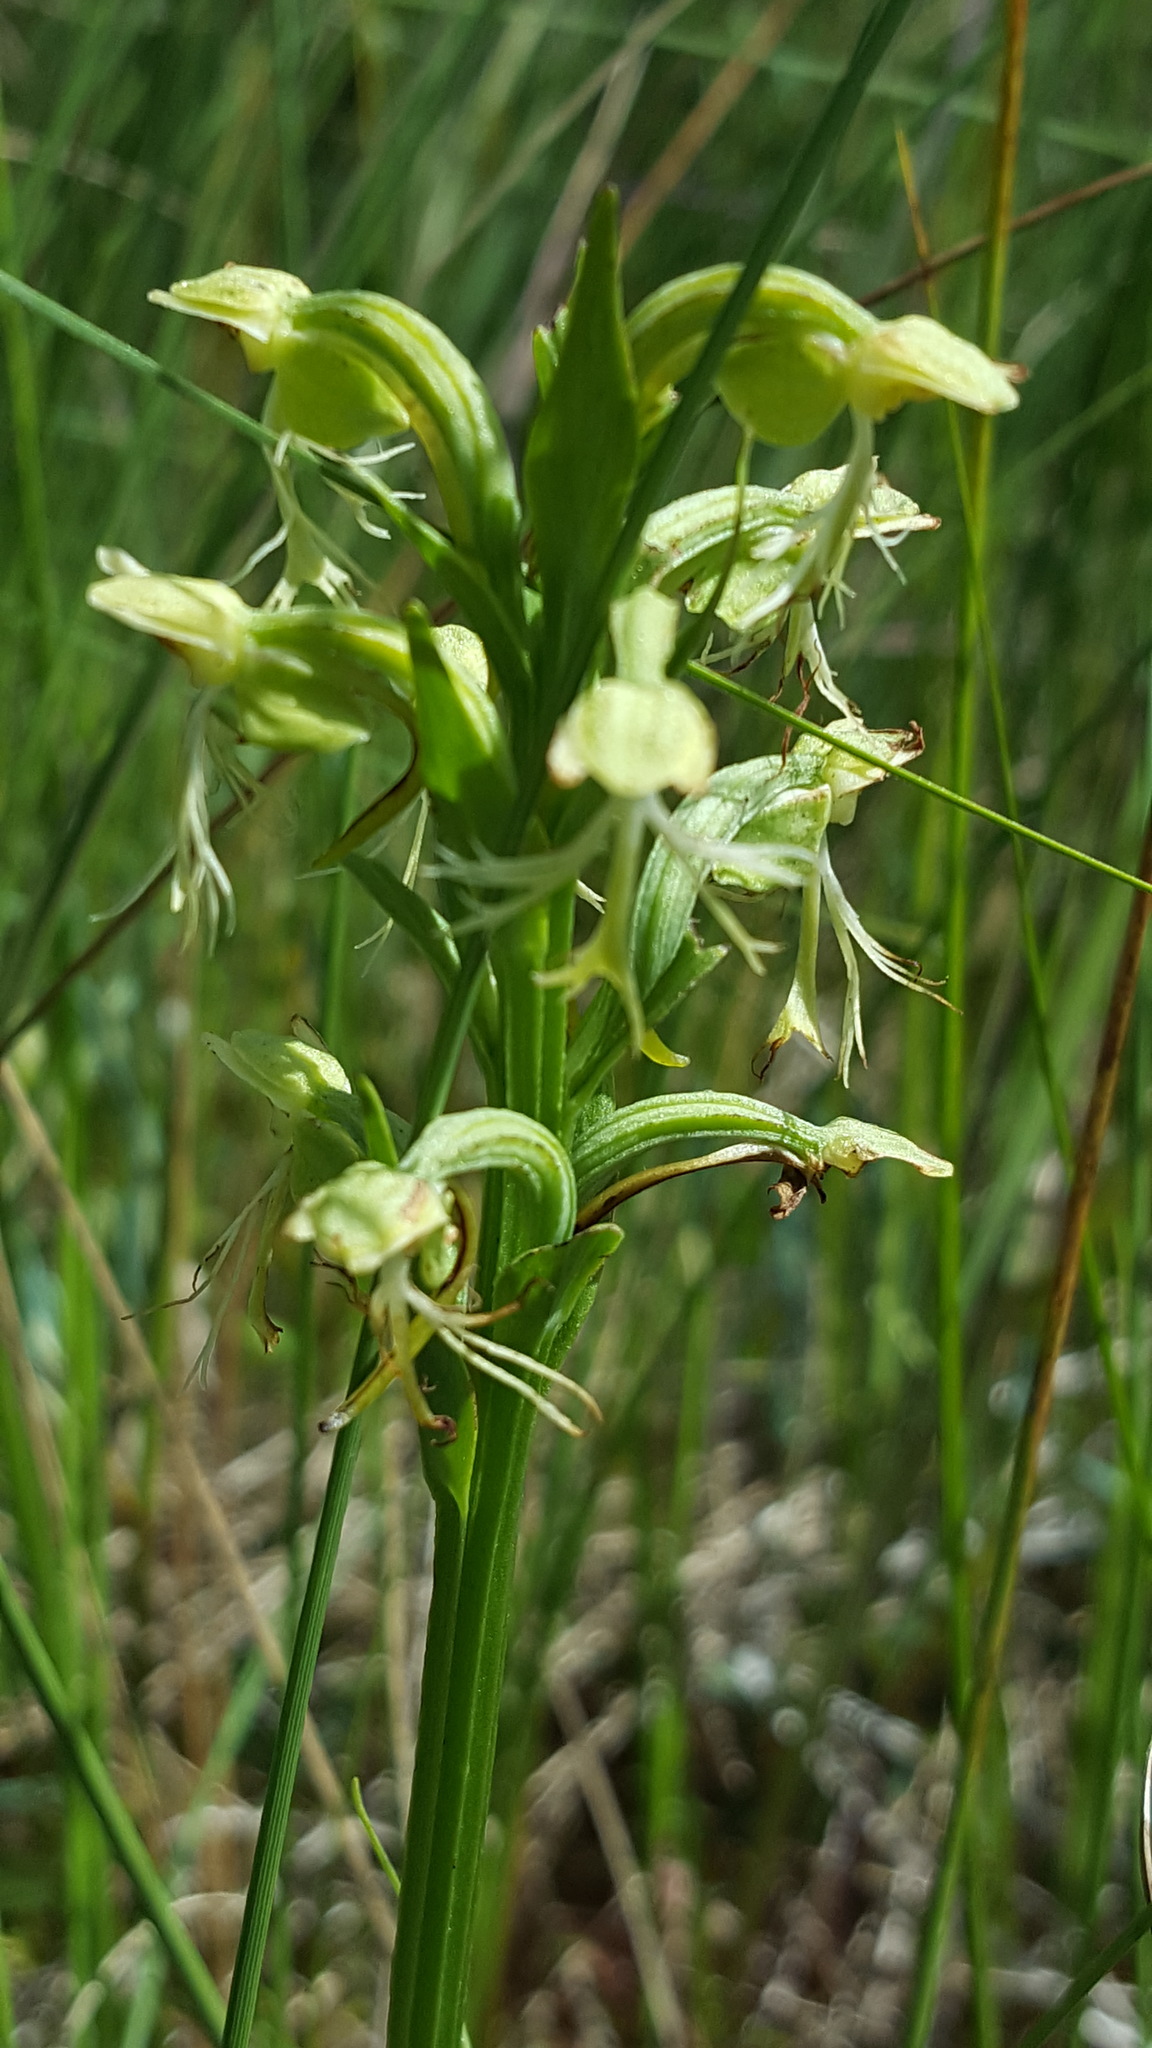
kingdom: Plantae
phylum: Tracheophyta
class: Liliopsida
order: Asparagales
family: Orchidaceae
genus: Platanthera
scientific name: Platanthera lacera
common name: Green fringed orchid
